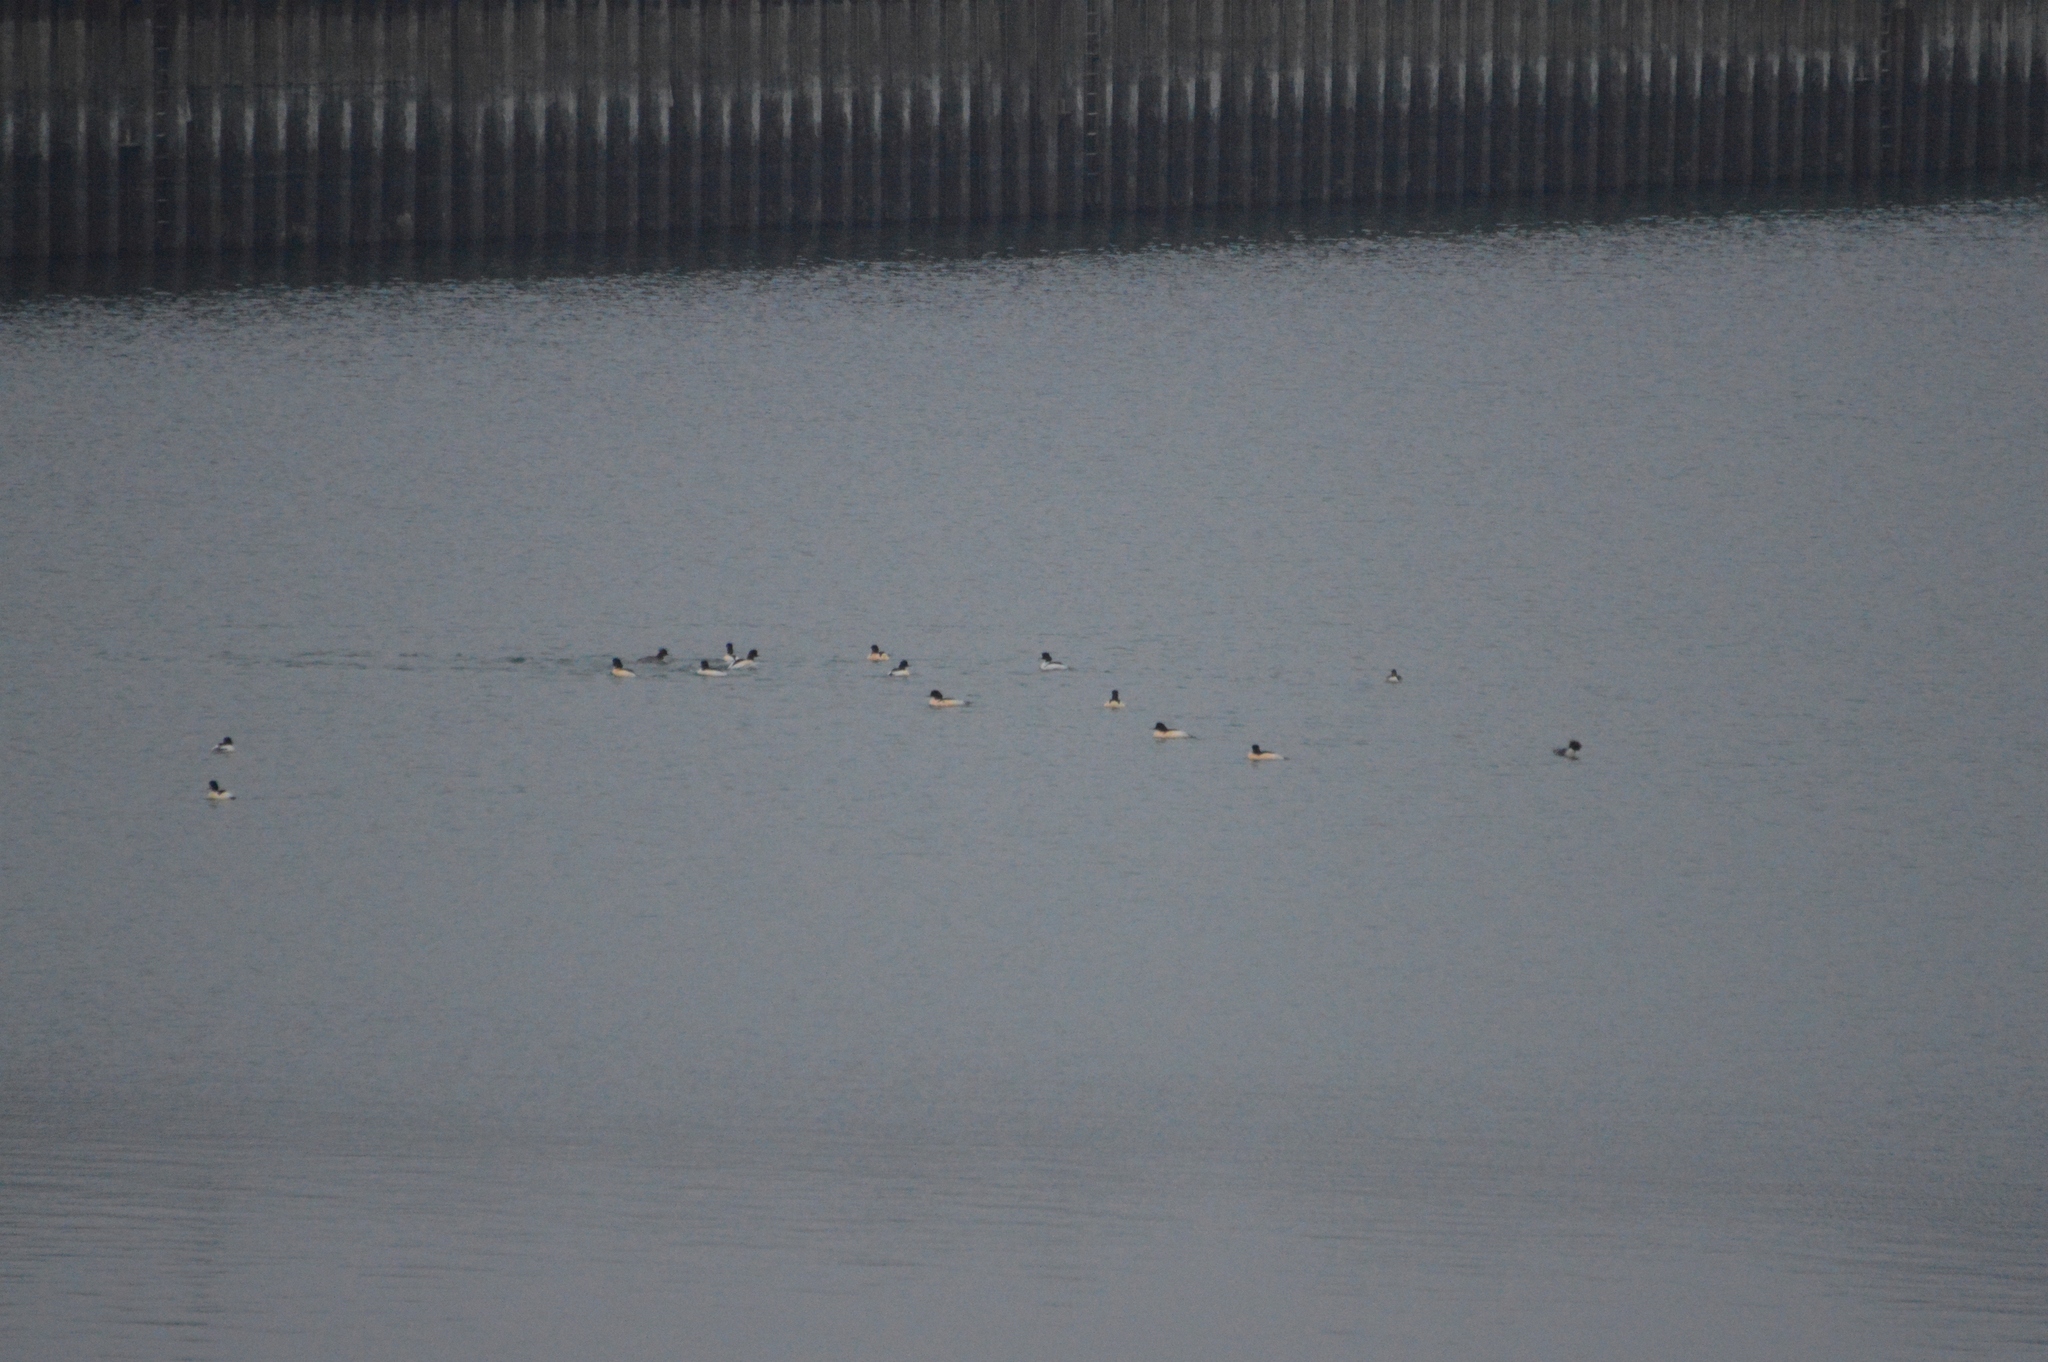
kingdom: Animalia
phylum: Chordata
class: Aves
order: Anseriformes
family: Anatidae
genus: Mergus
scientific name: Mergus merganser
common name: Common merganser
